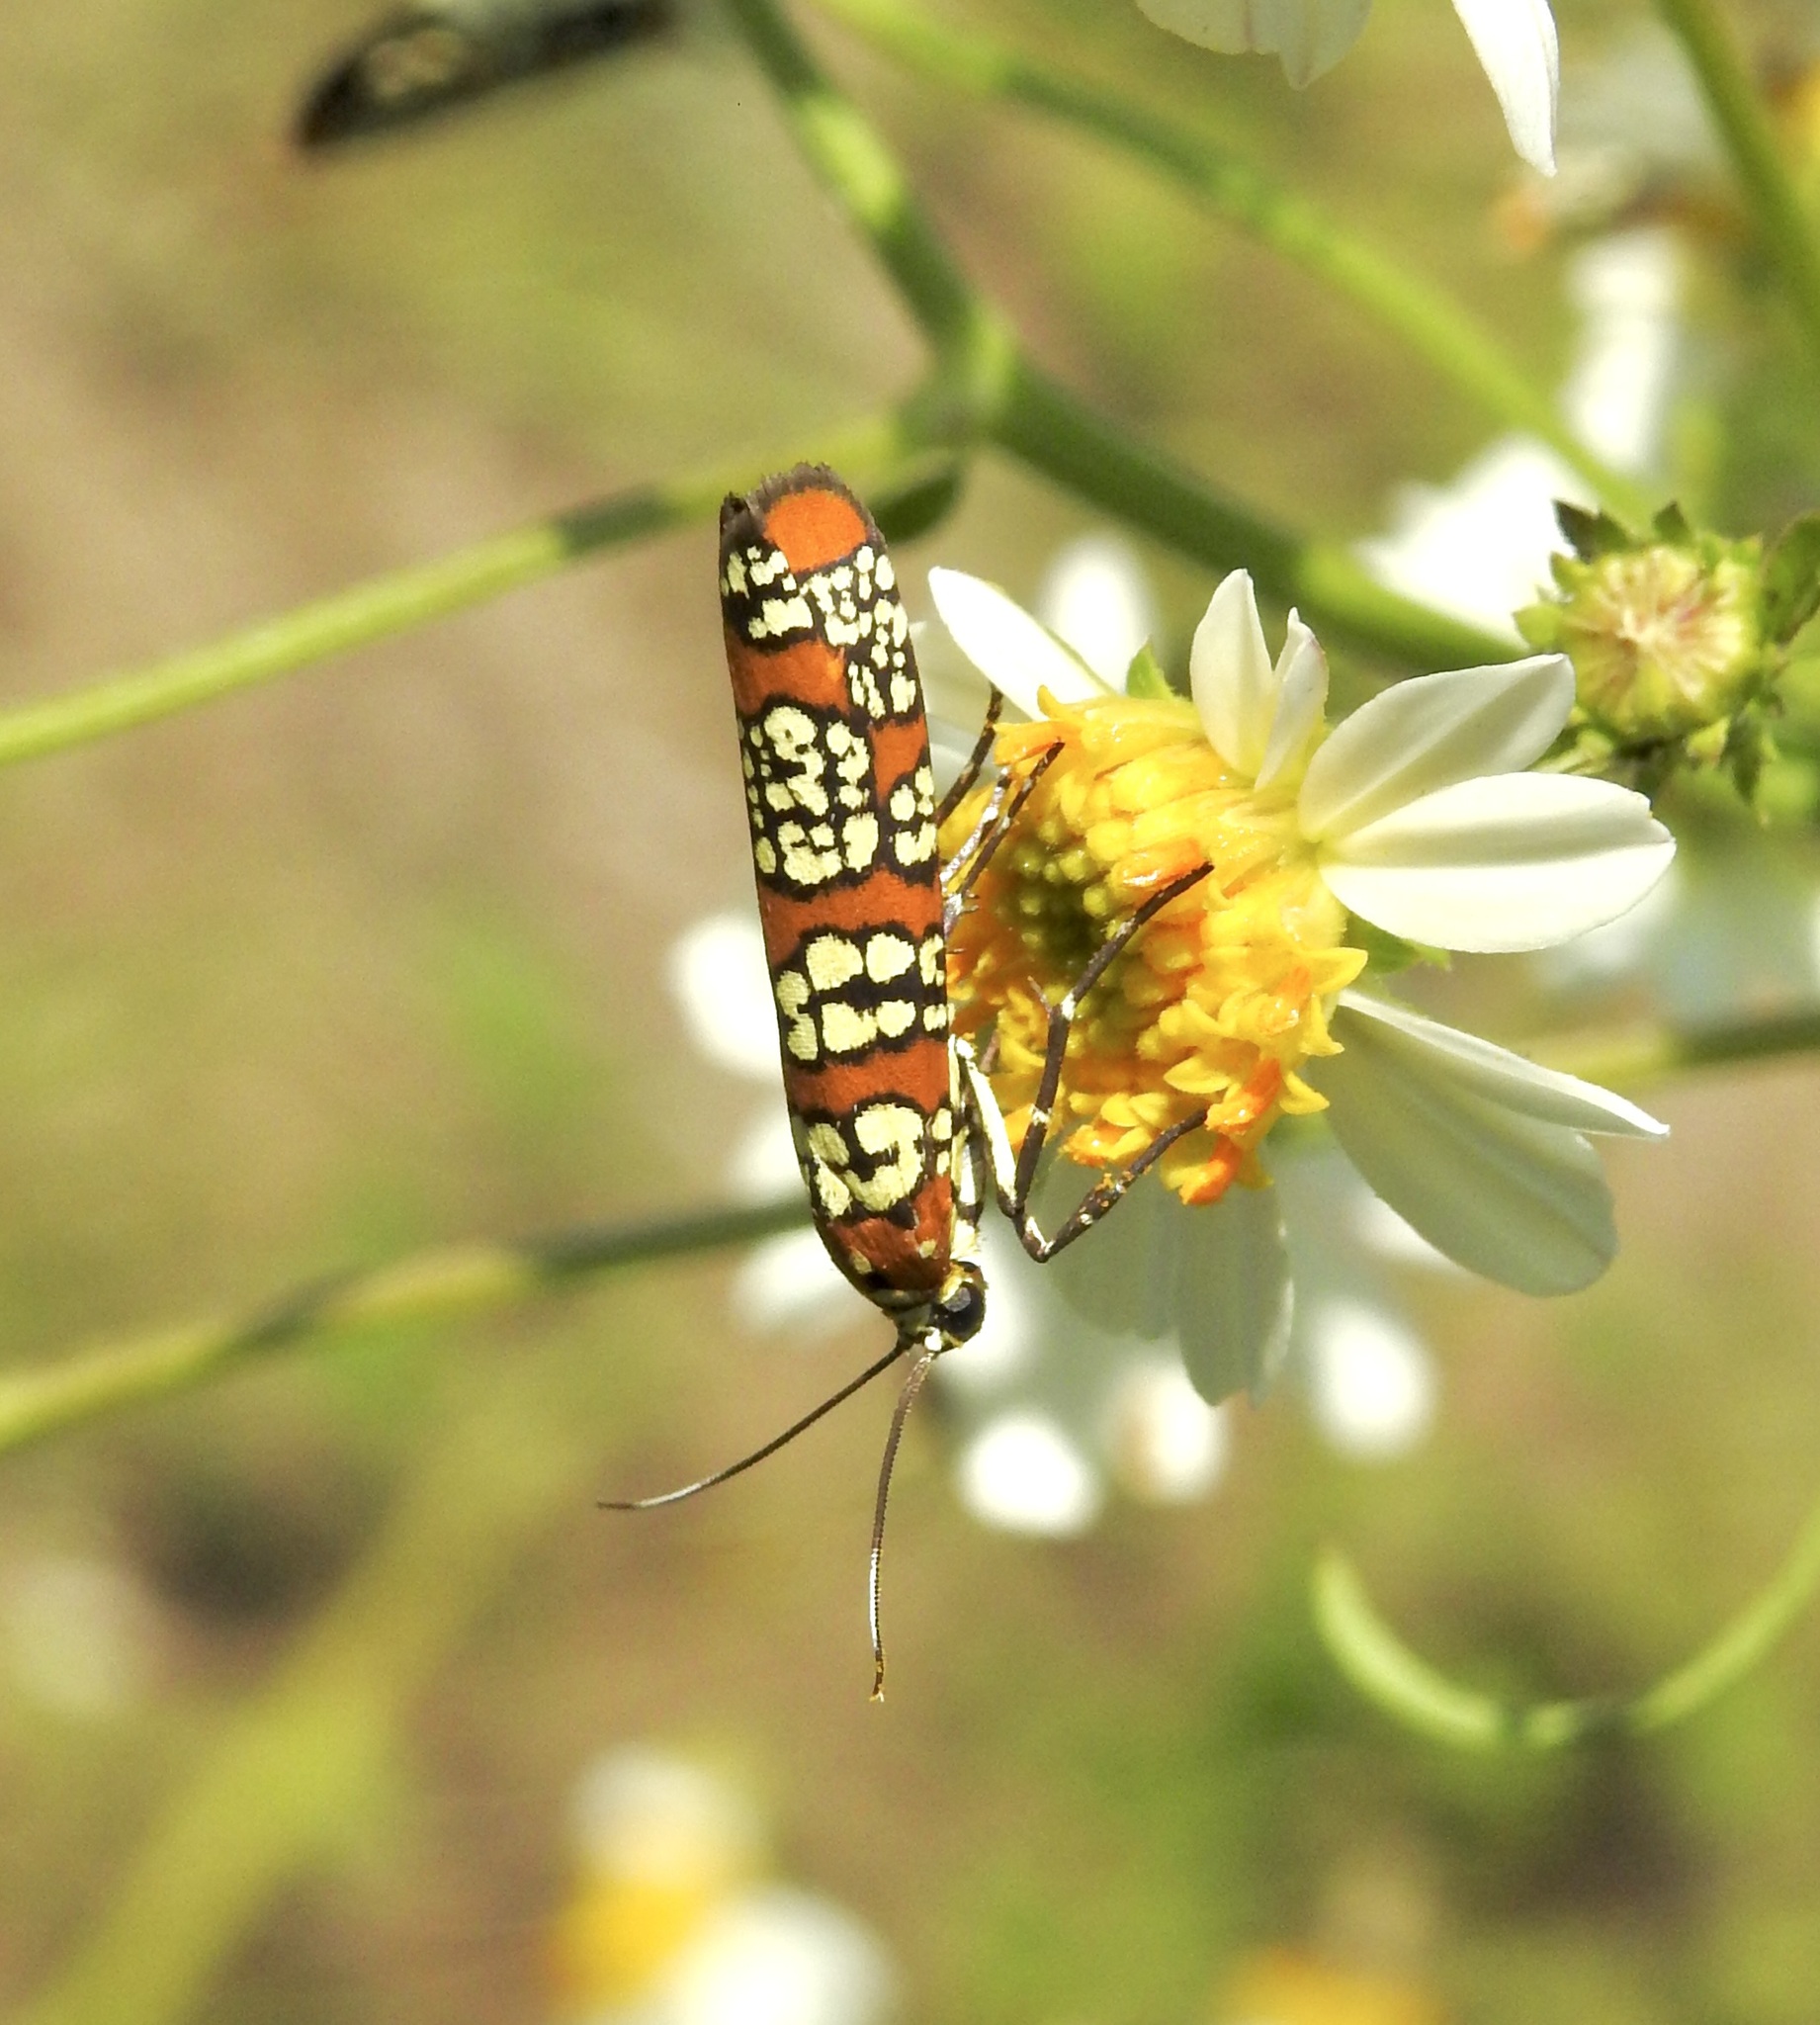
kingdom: Animalia
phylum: Arthropoda
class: Insecta
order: Lepidoptera
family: Attevidae
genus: Atteva
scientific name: Atteva punctella
